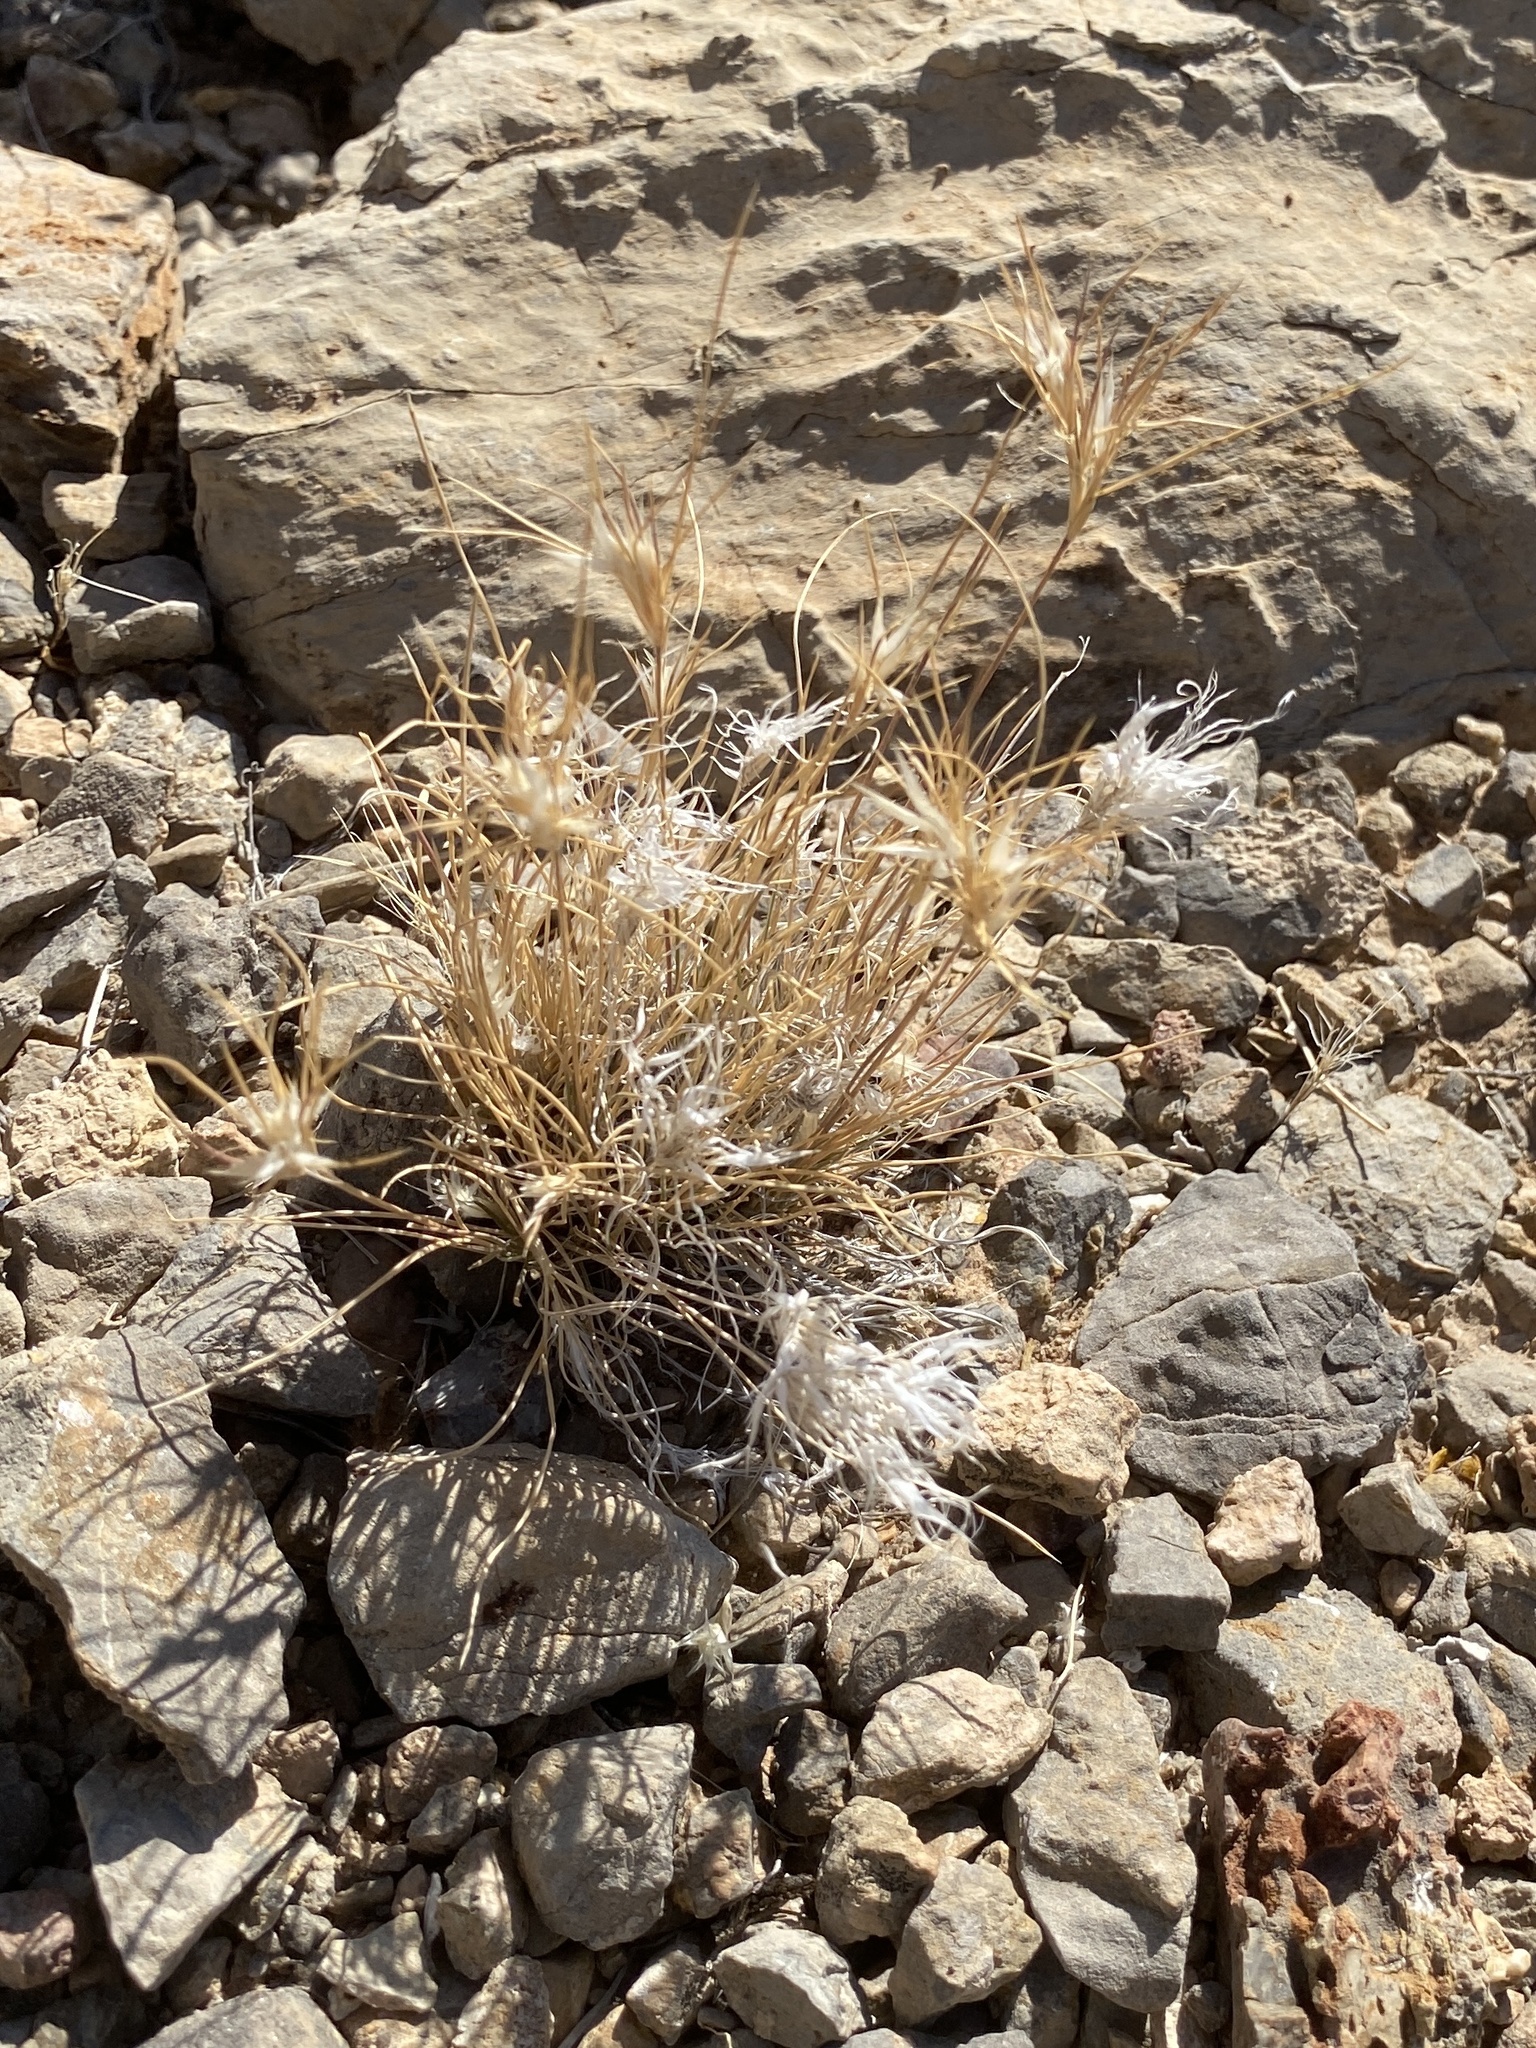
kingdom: Plantae
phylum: Tracheophyta
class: Liliopsida
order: Poales
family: Poaceae
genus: Dasyochloa
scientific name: Dasyochloa pulchella
